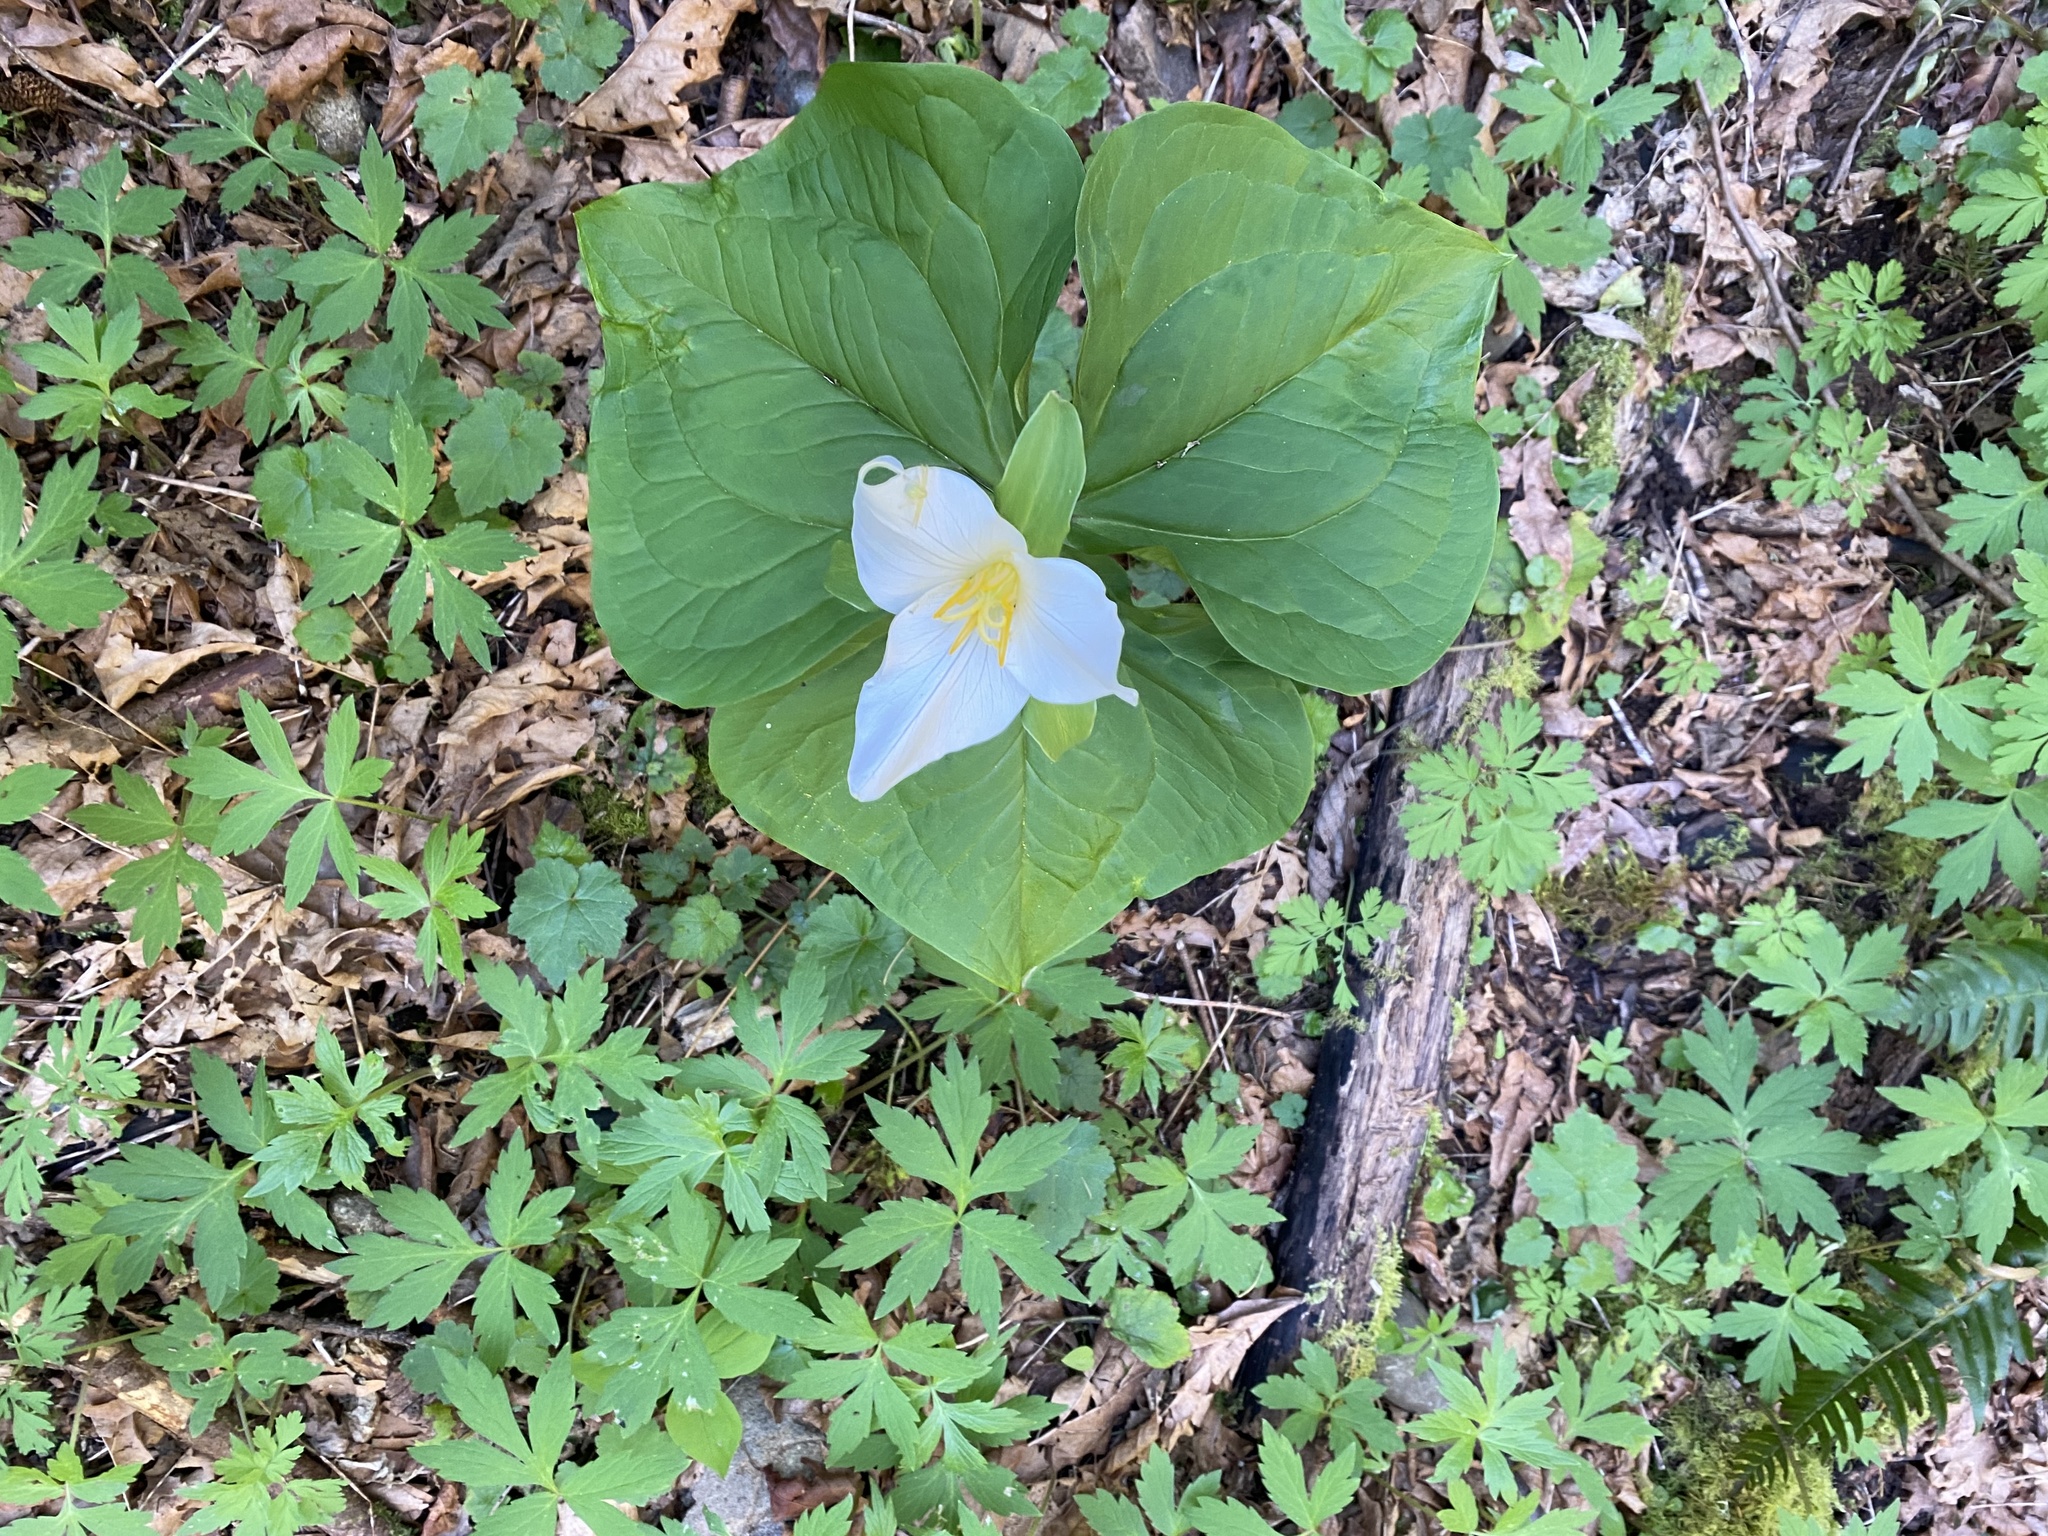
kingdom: Plantae
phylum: Tracheophyta
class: Liliopsida
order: Liliales
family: Melanthiaceae
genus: Trillium
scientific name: Trillium ovatum
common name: Pacific trillium
